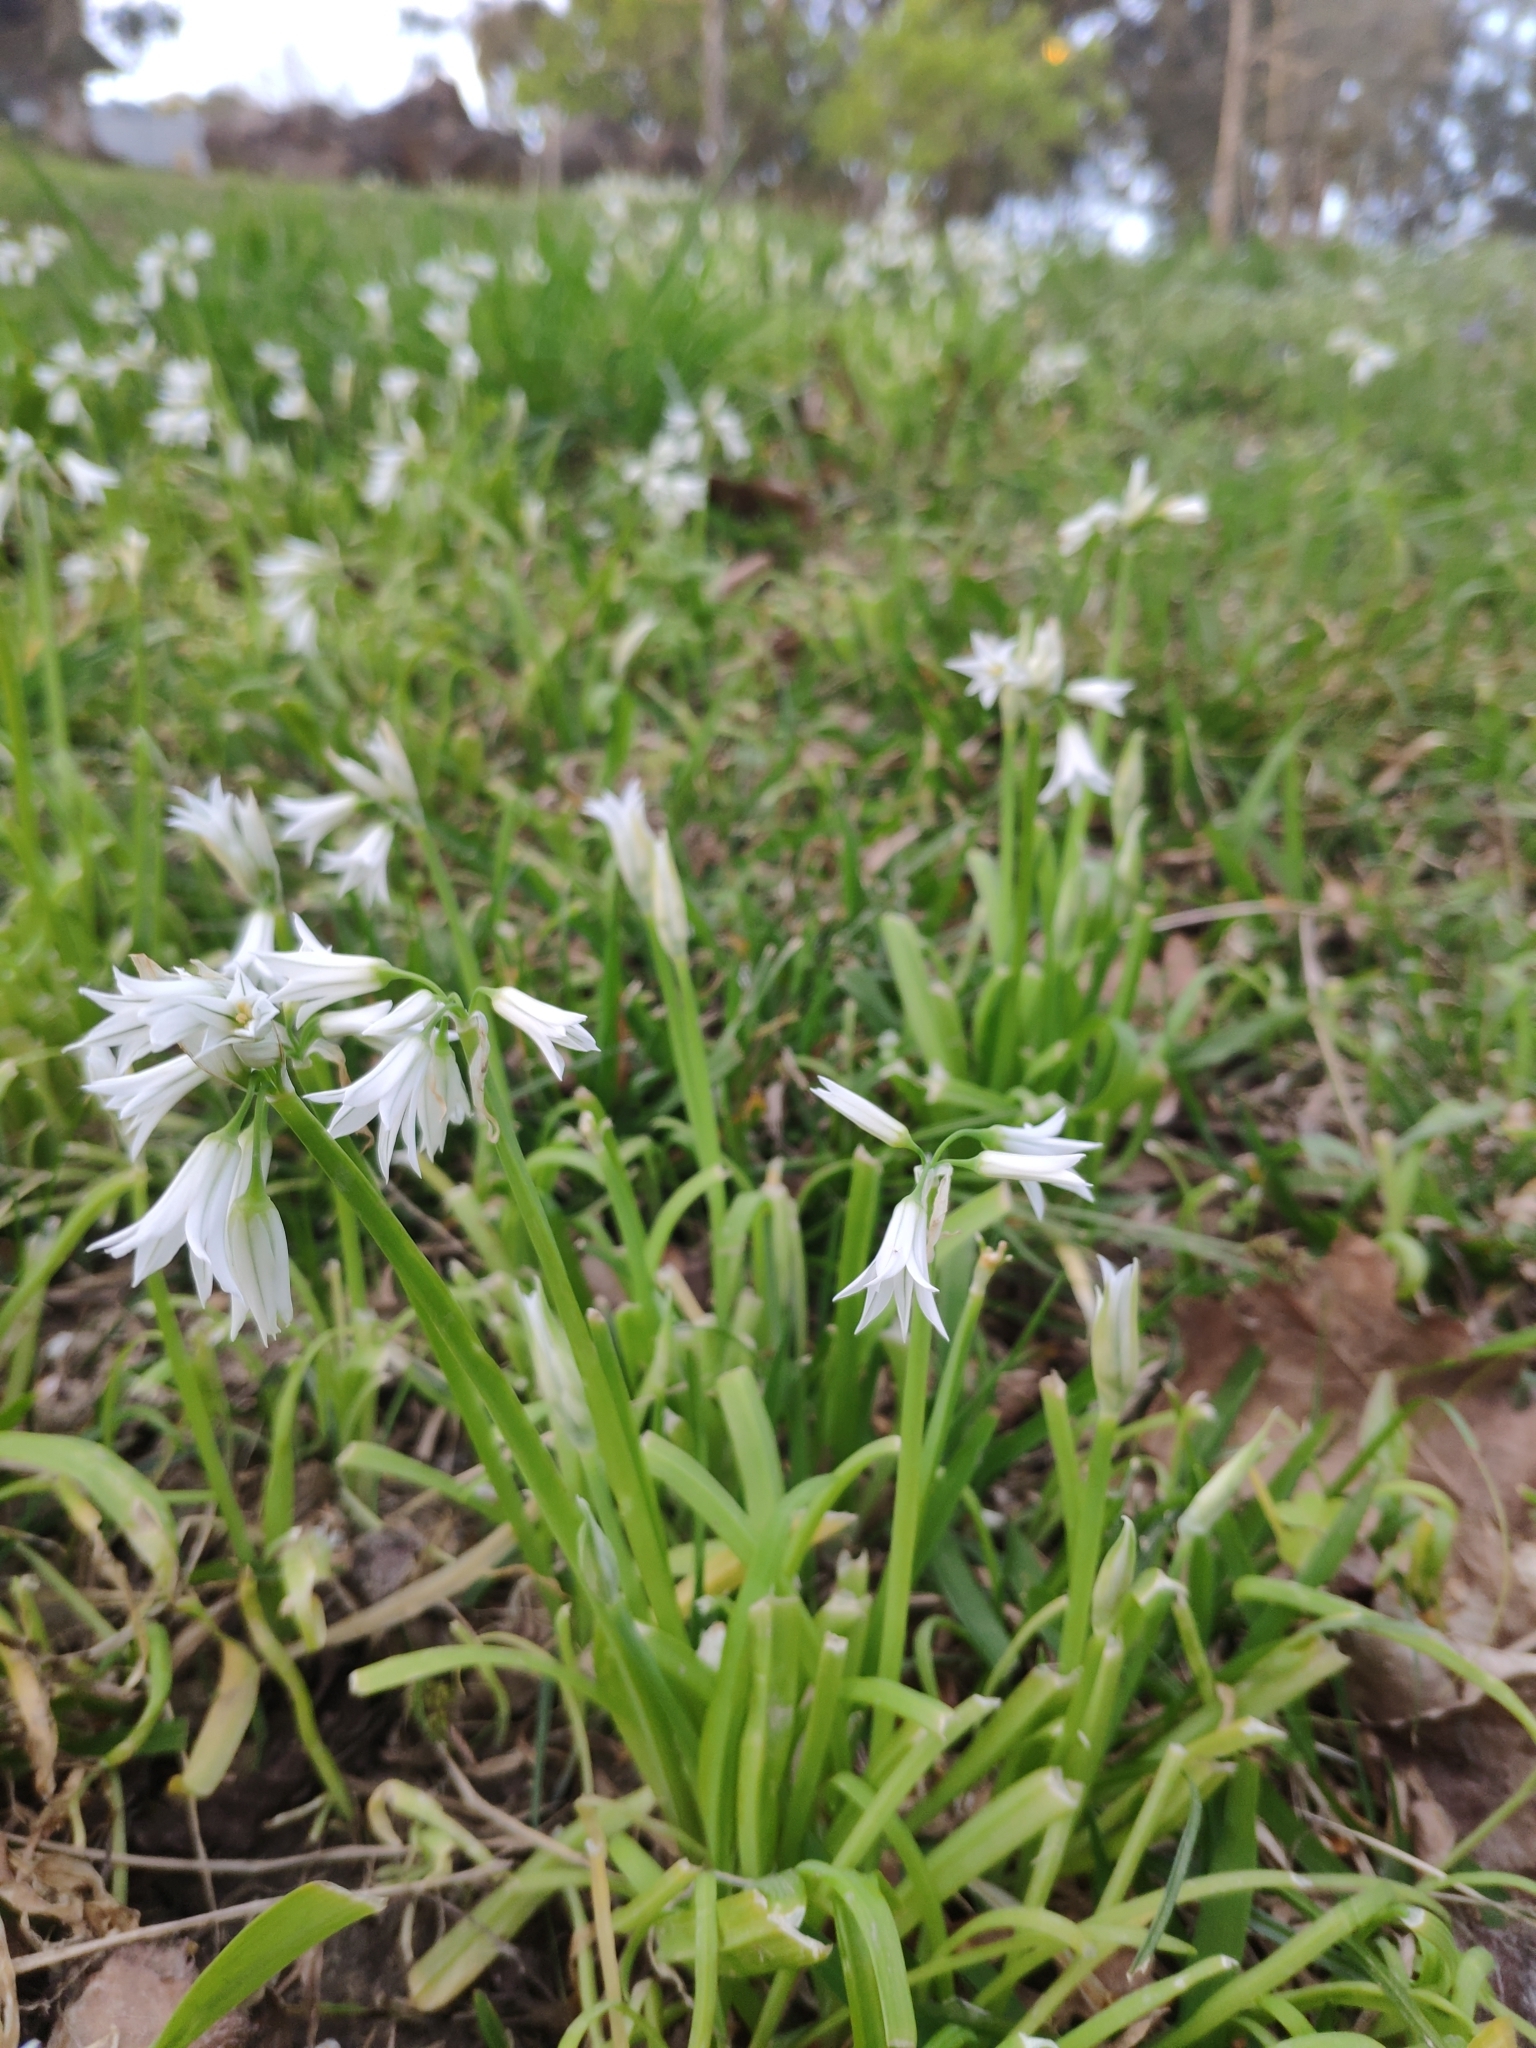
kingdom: Plantae
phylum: Tracheophyta
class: Liliopsida
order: Asparagales
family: Amaryllidaceae
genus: Allium
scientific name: Allium triquetrum
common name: Three-cornered garlic
